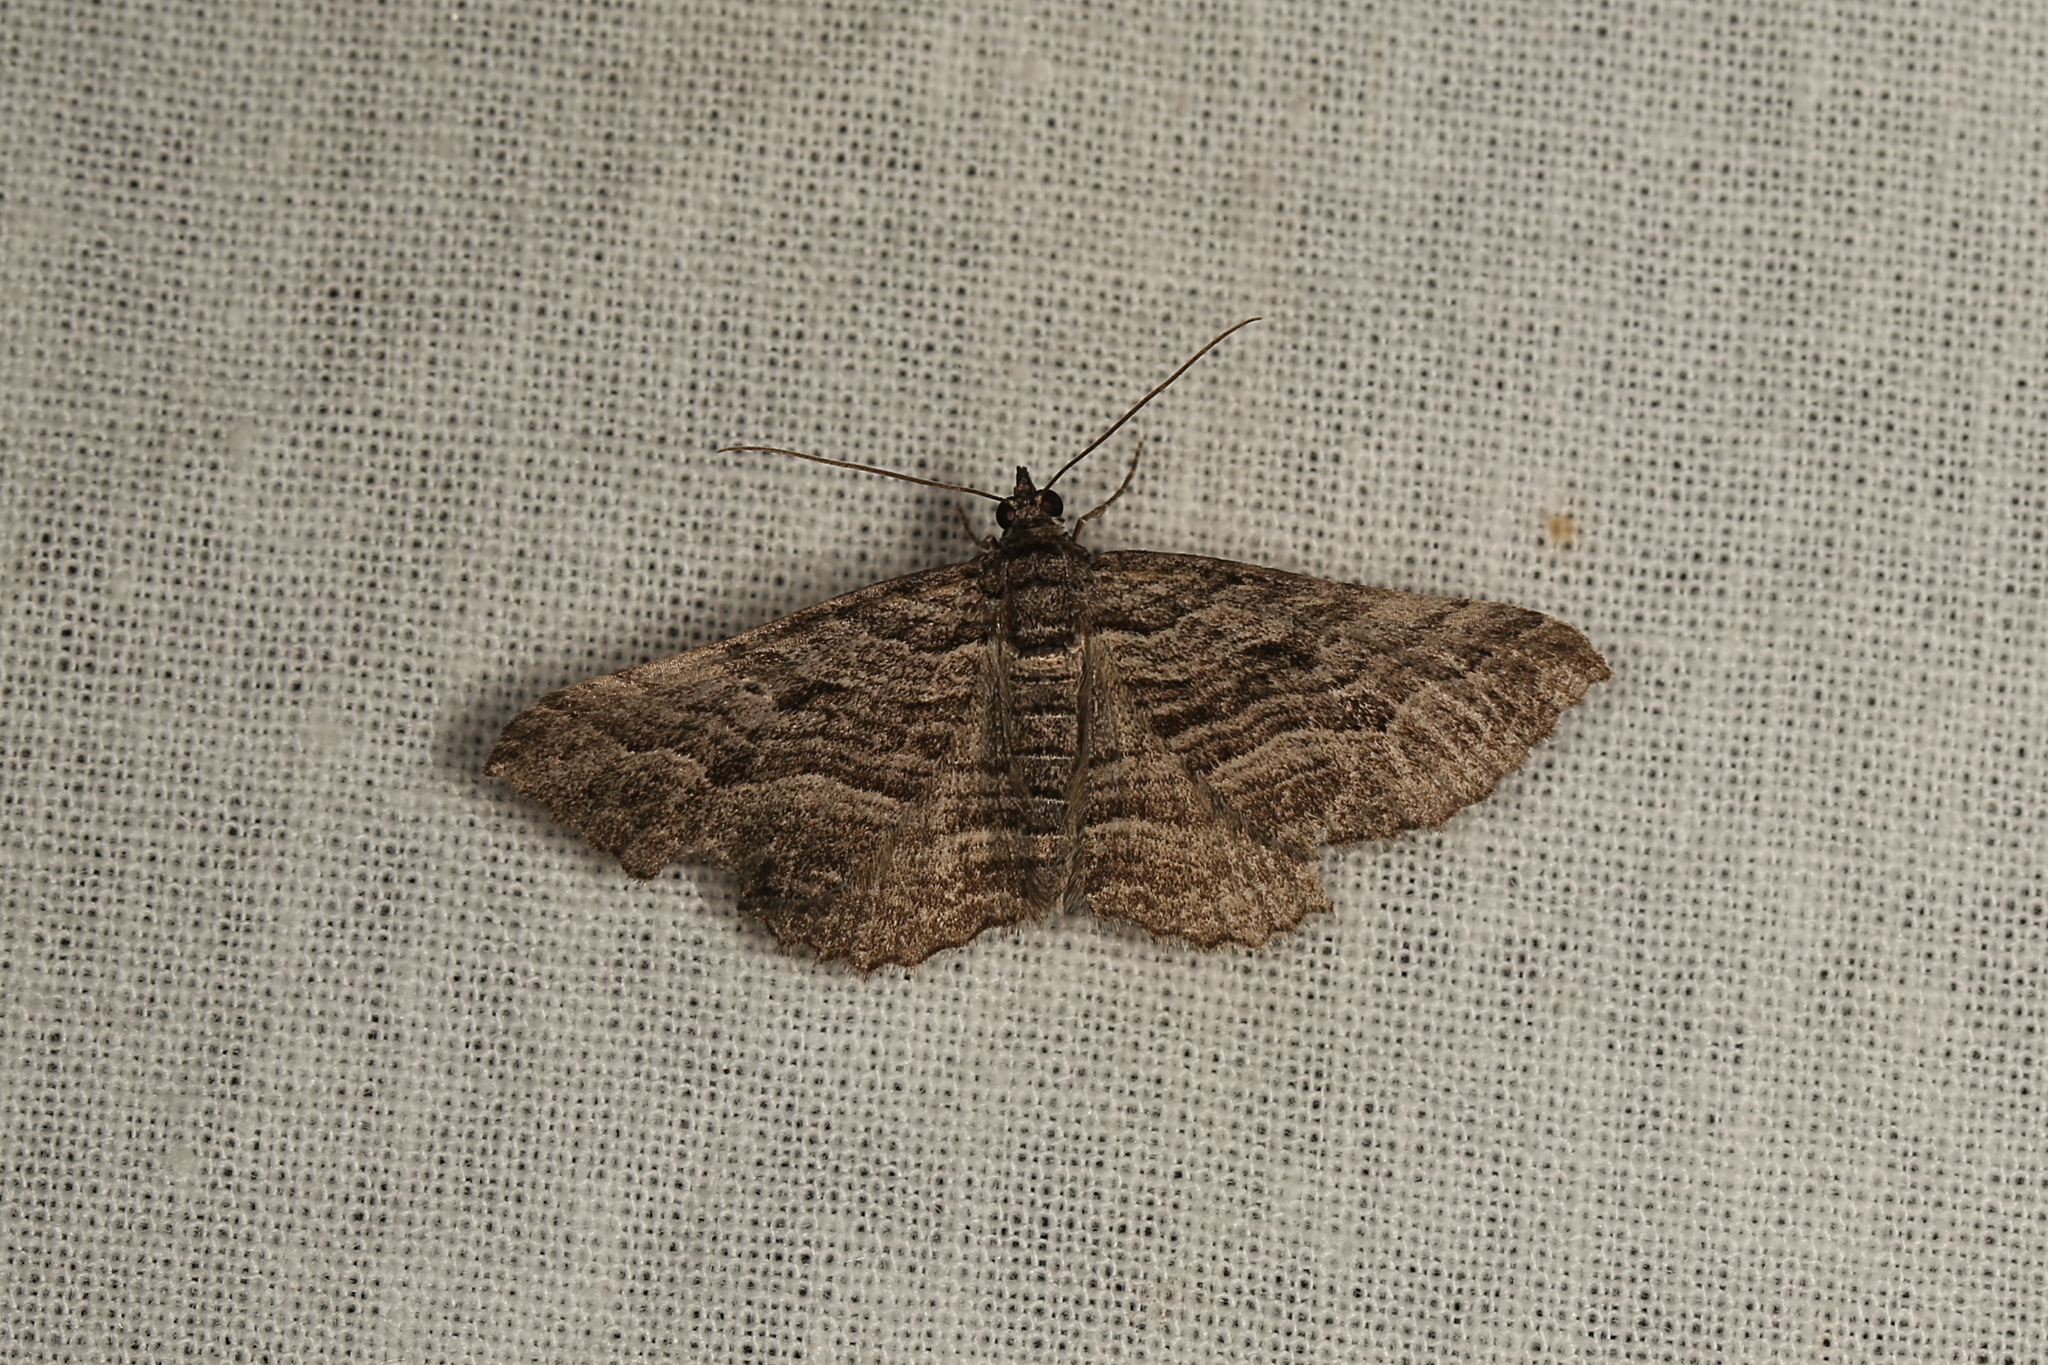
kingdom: Animalia
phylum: Arthropoda
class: Insecta
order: Lepidoptera
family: Geometridae
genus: Chrysolarentia
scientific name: Chrysolarentia severata
